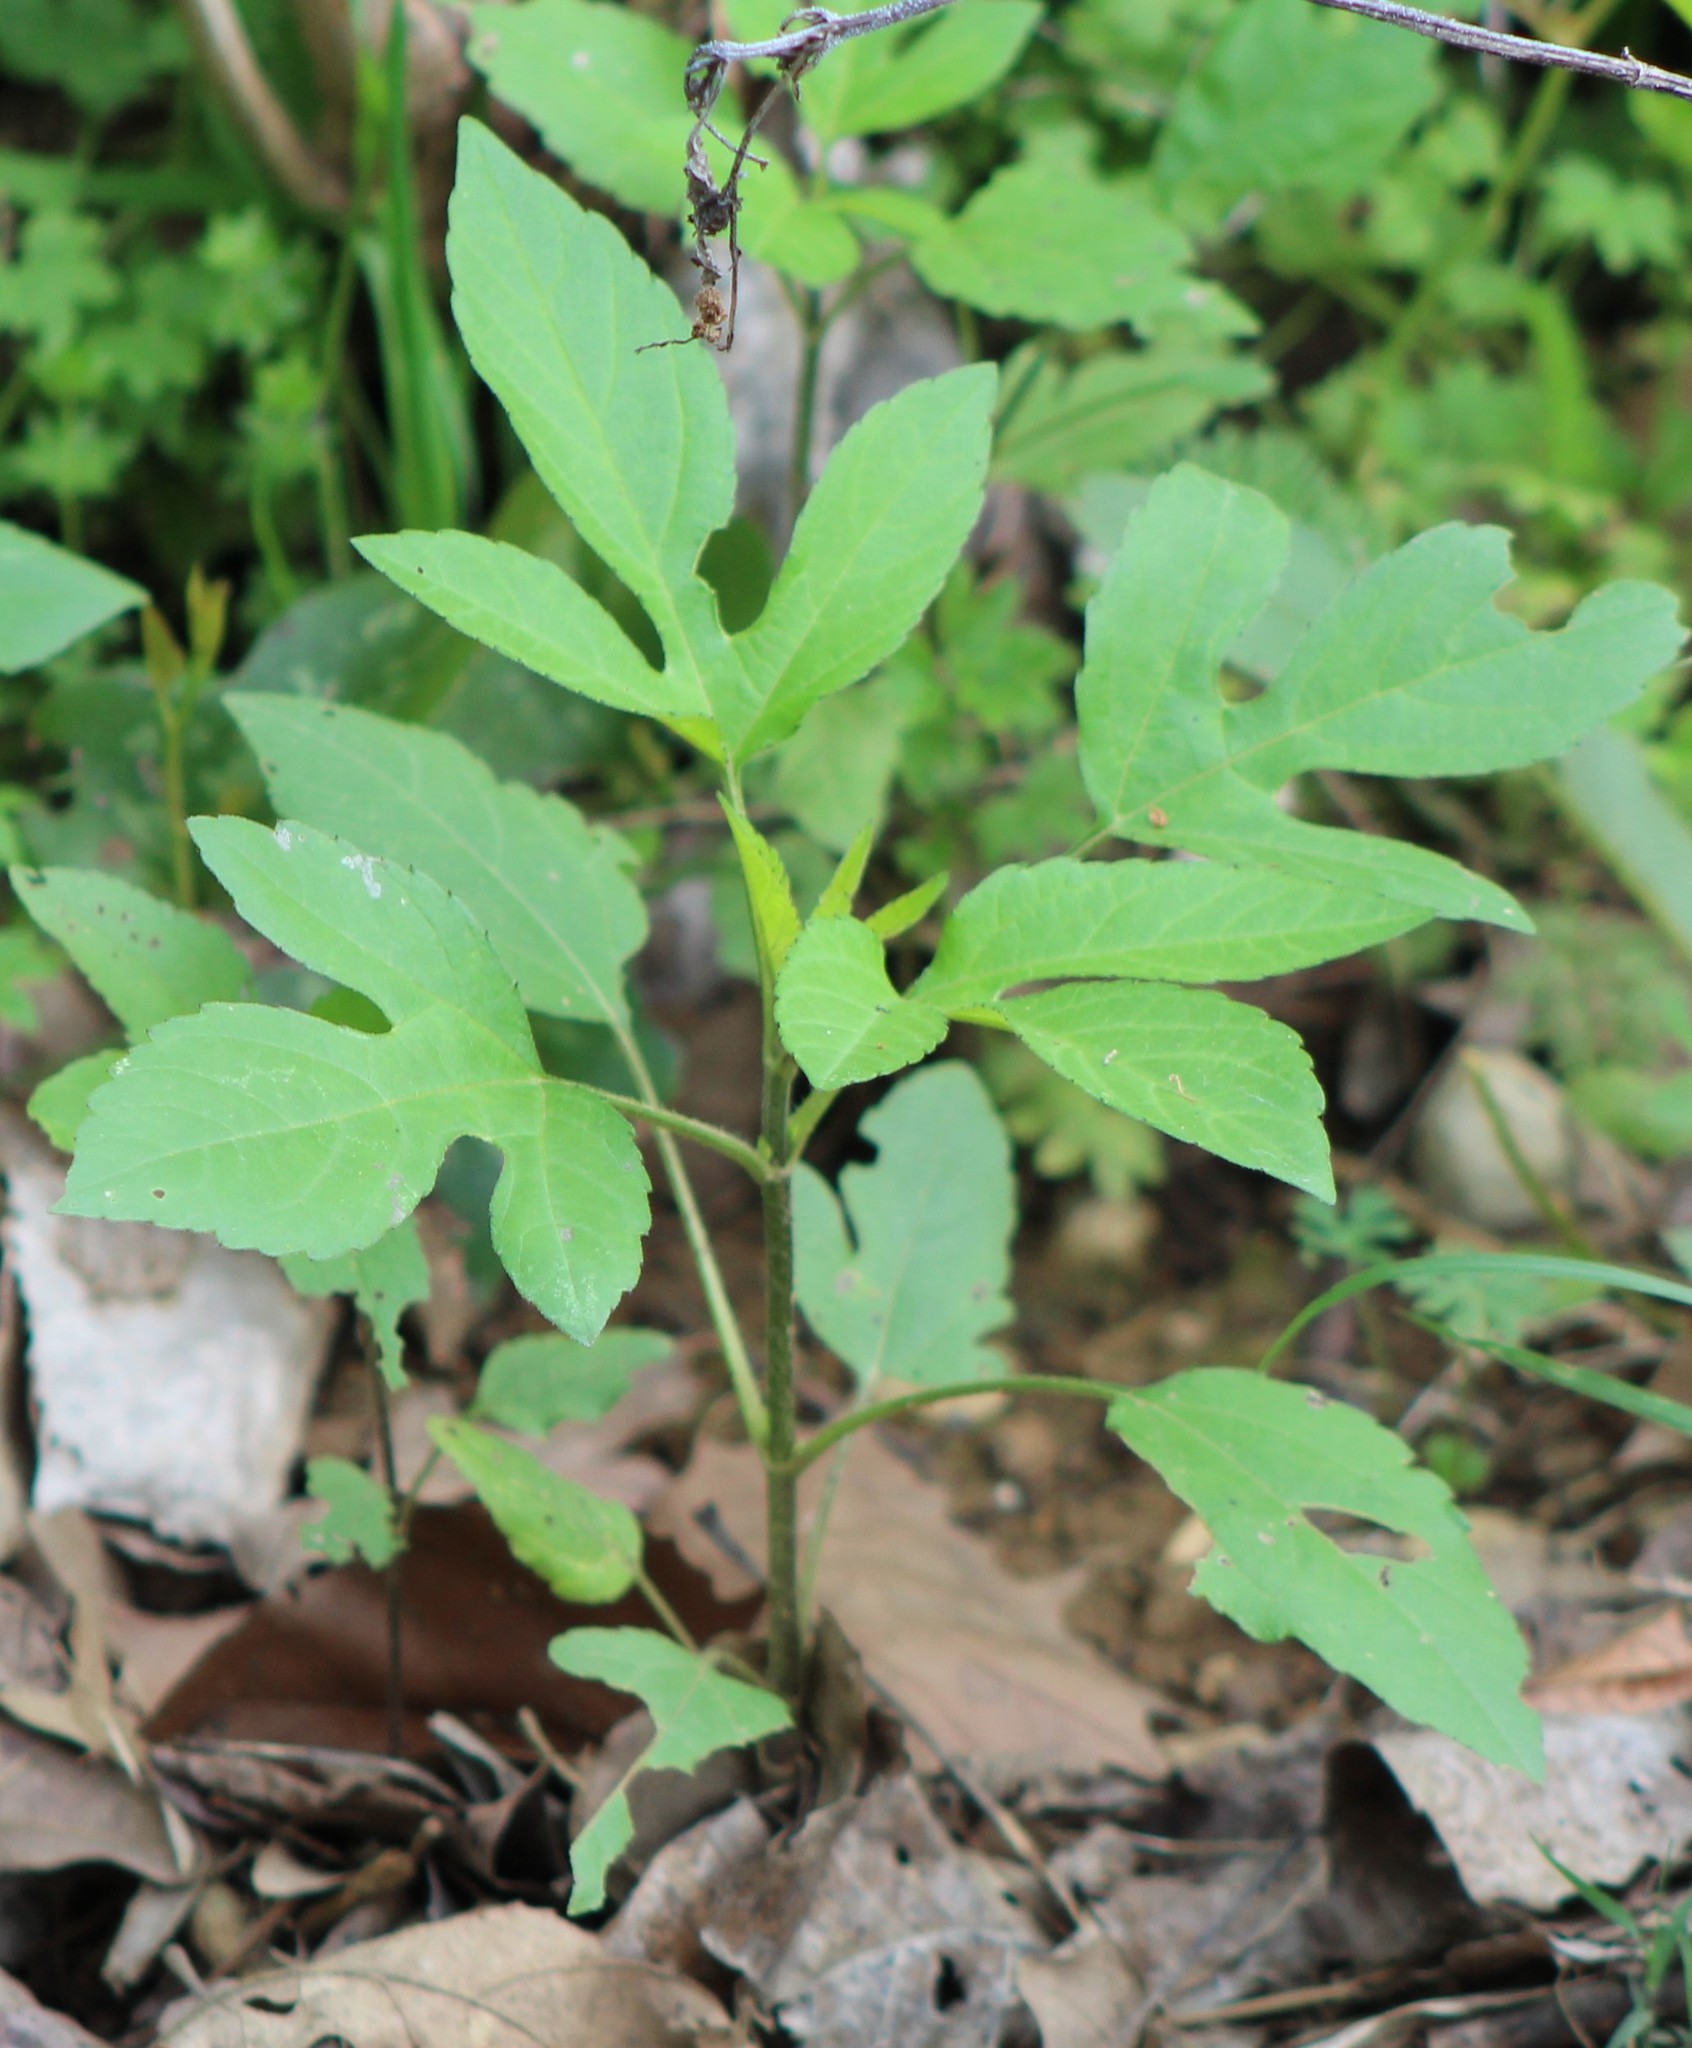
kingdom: Plantae
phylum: Tracheophyta
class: Magnoliopsida
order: Asterales
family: Asteraceae
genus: Ambrosia
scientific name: Ambrosia trifida
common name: Giant ragweed
